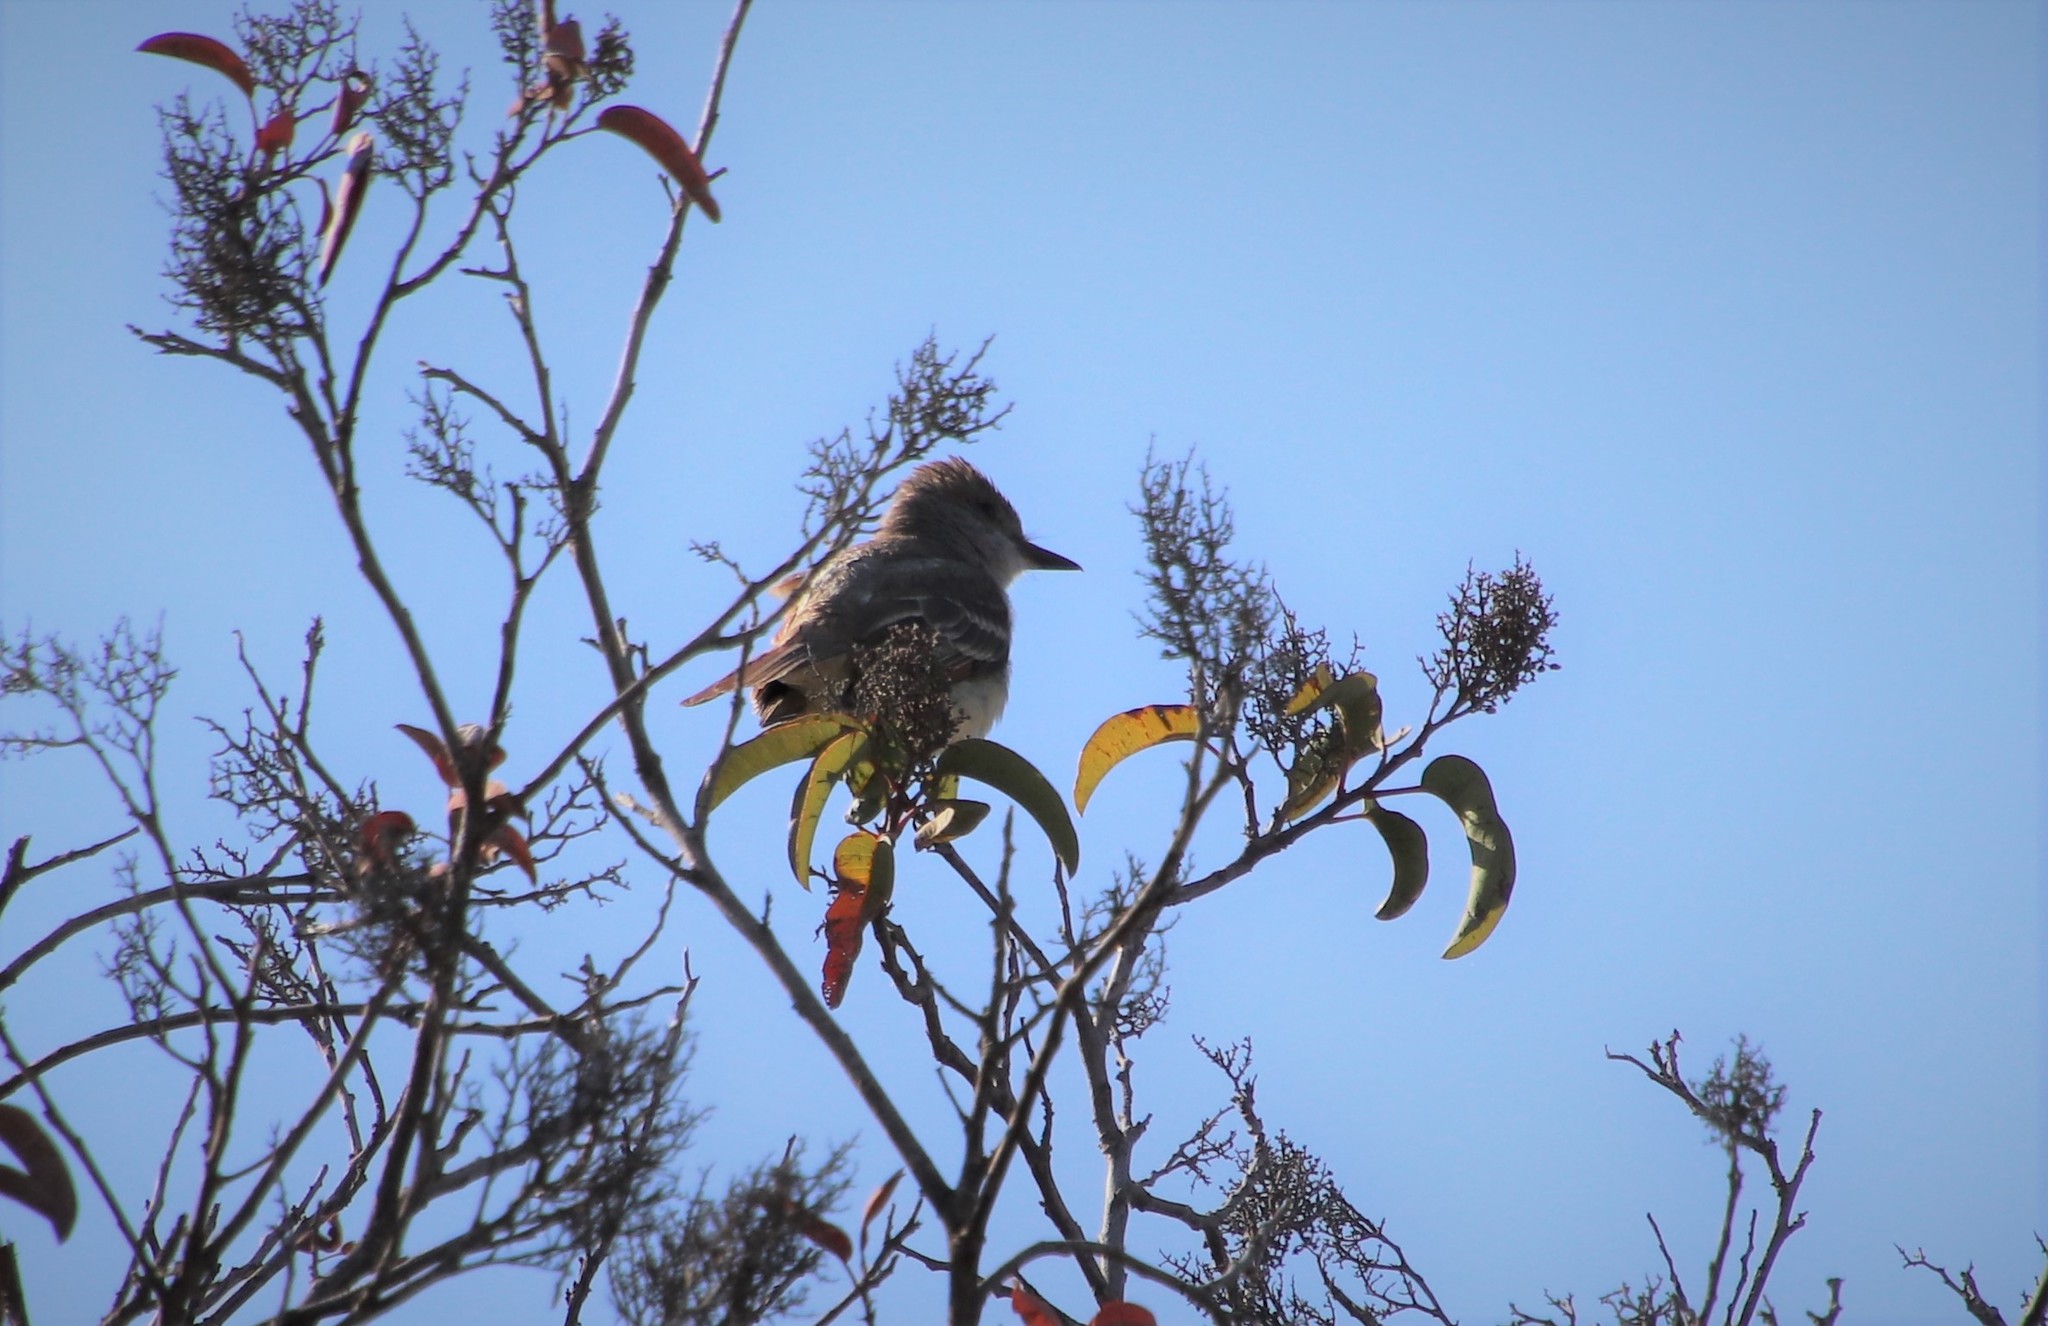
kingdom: Animalia
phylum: Chordata
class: Aves
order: Passeriformes
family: Tyrannidae
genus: Myiarchus
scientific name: Myiarchus cinerascens
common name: Ash-throated flycatcher
